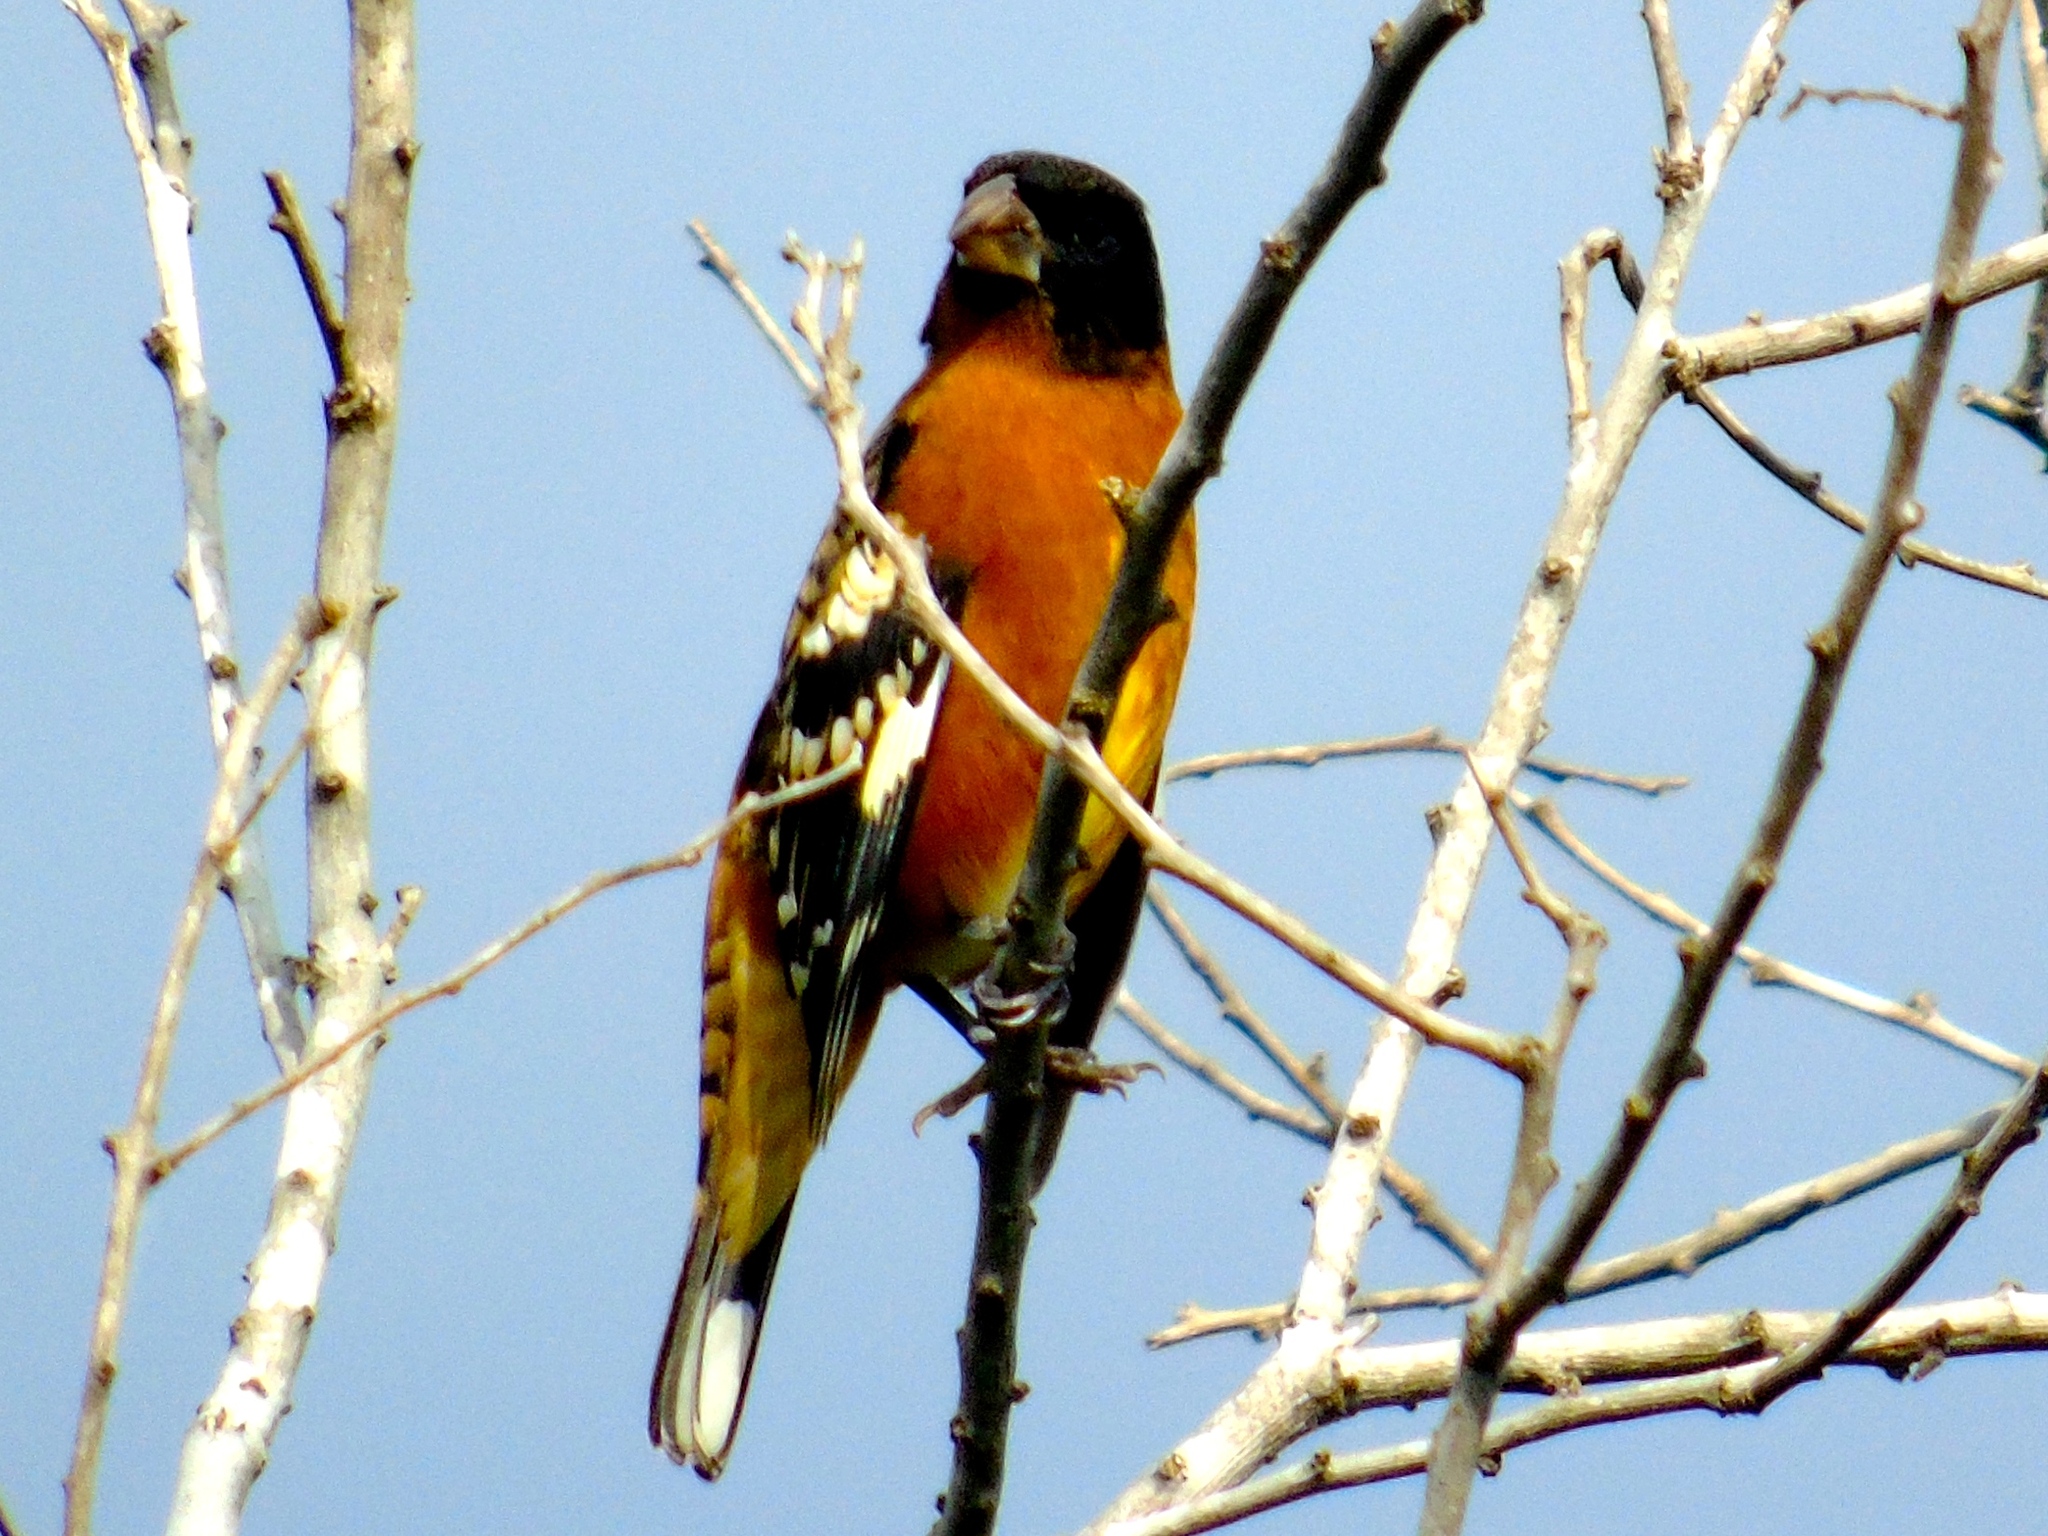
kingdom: Animalia
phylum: Chordata
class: Aves
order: Passeriformes
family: Cardinalidae
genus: Pheucticus
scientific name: Pheucticus melanocephalus
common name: Black-headed grosbeak
